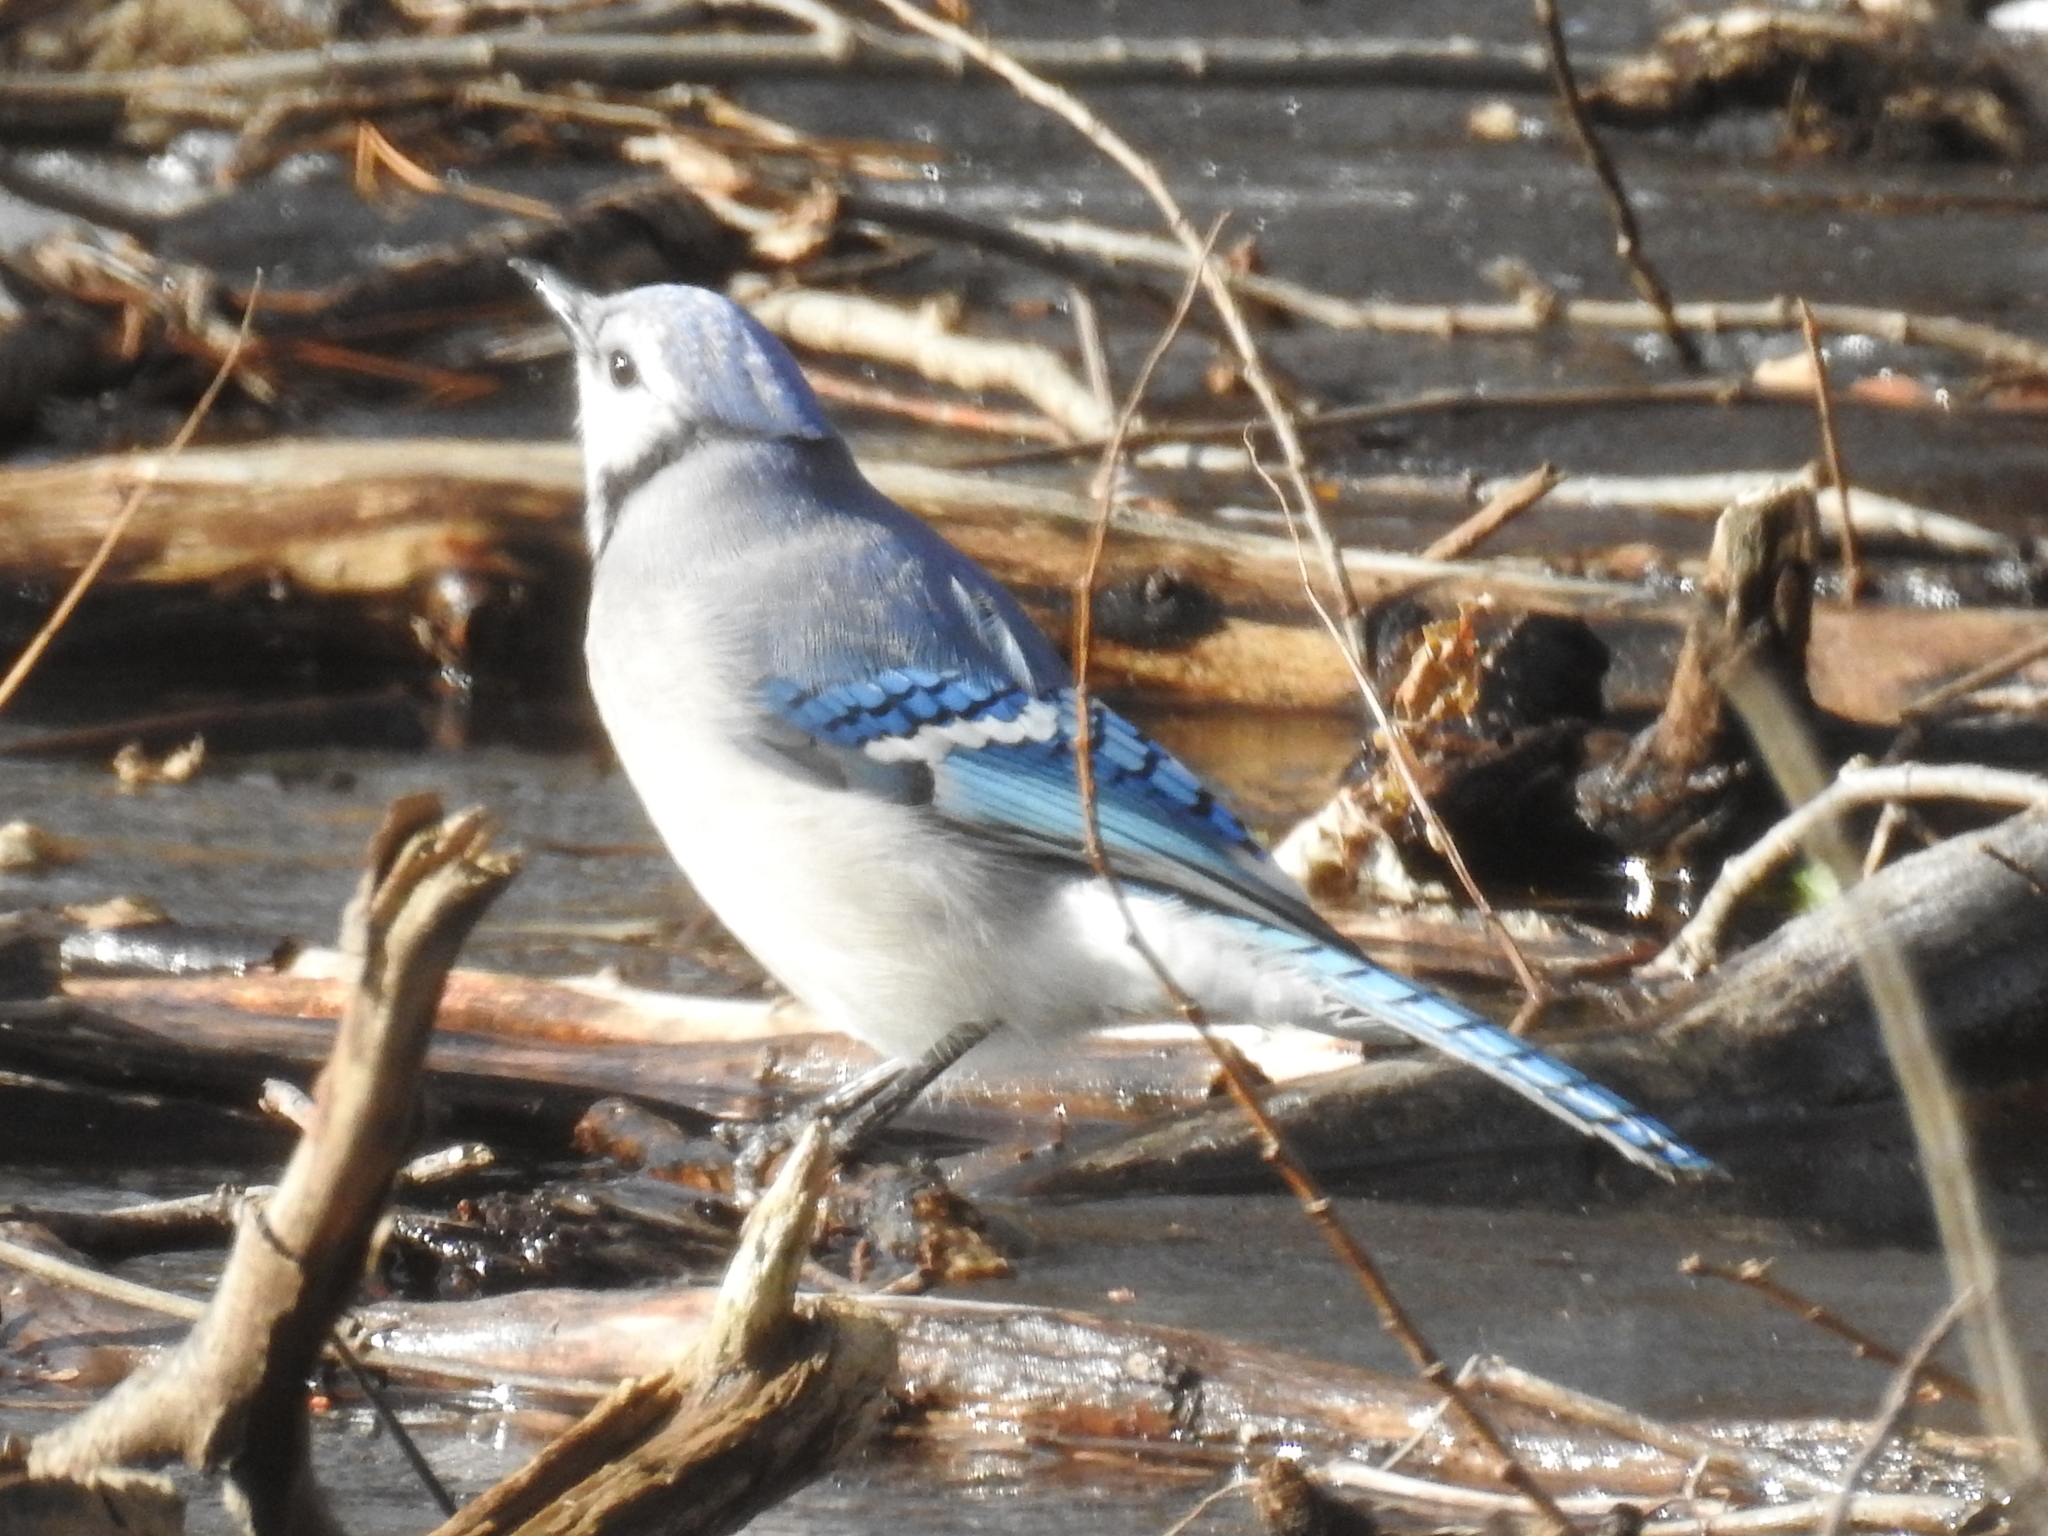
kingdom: Animalia
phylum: Chordata
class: Aves
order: Passeriformes
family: Corvidae
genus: Cyanocitta
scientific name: Cyanocitta cristata
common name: Blue jay
